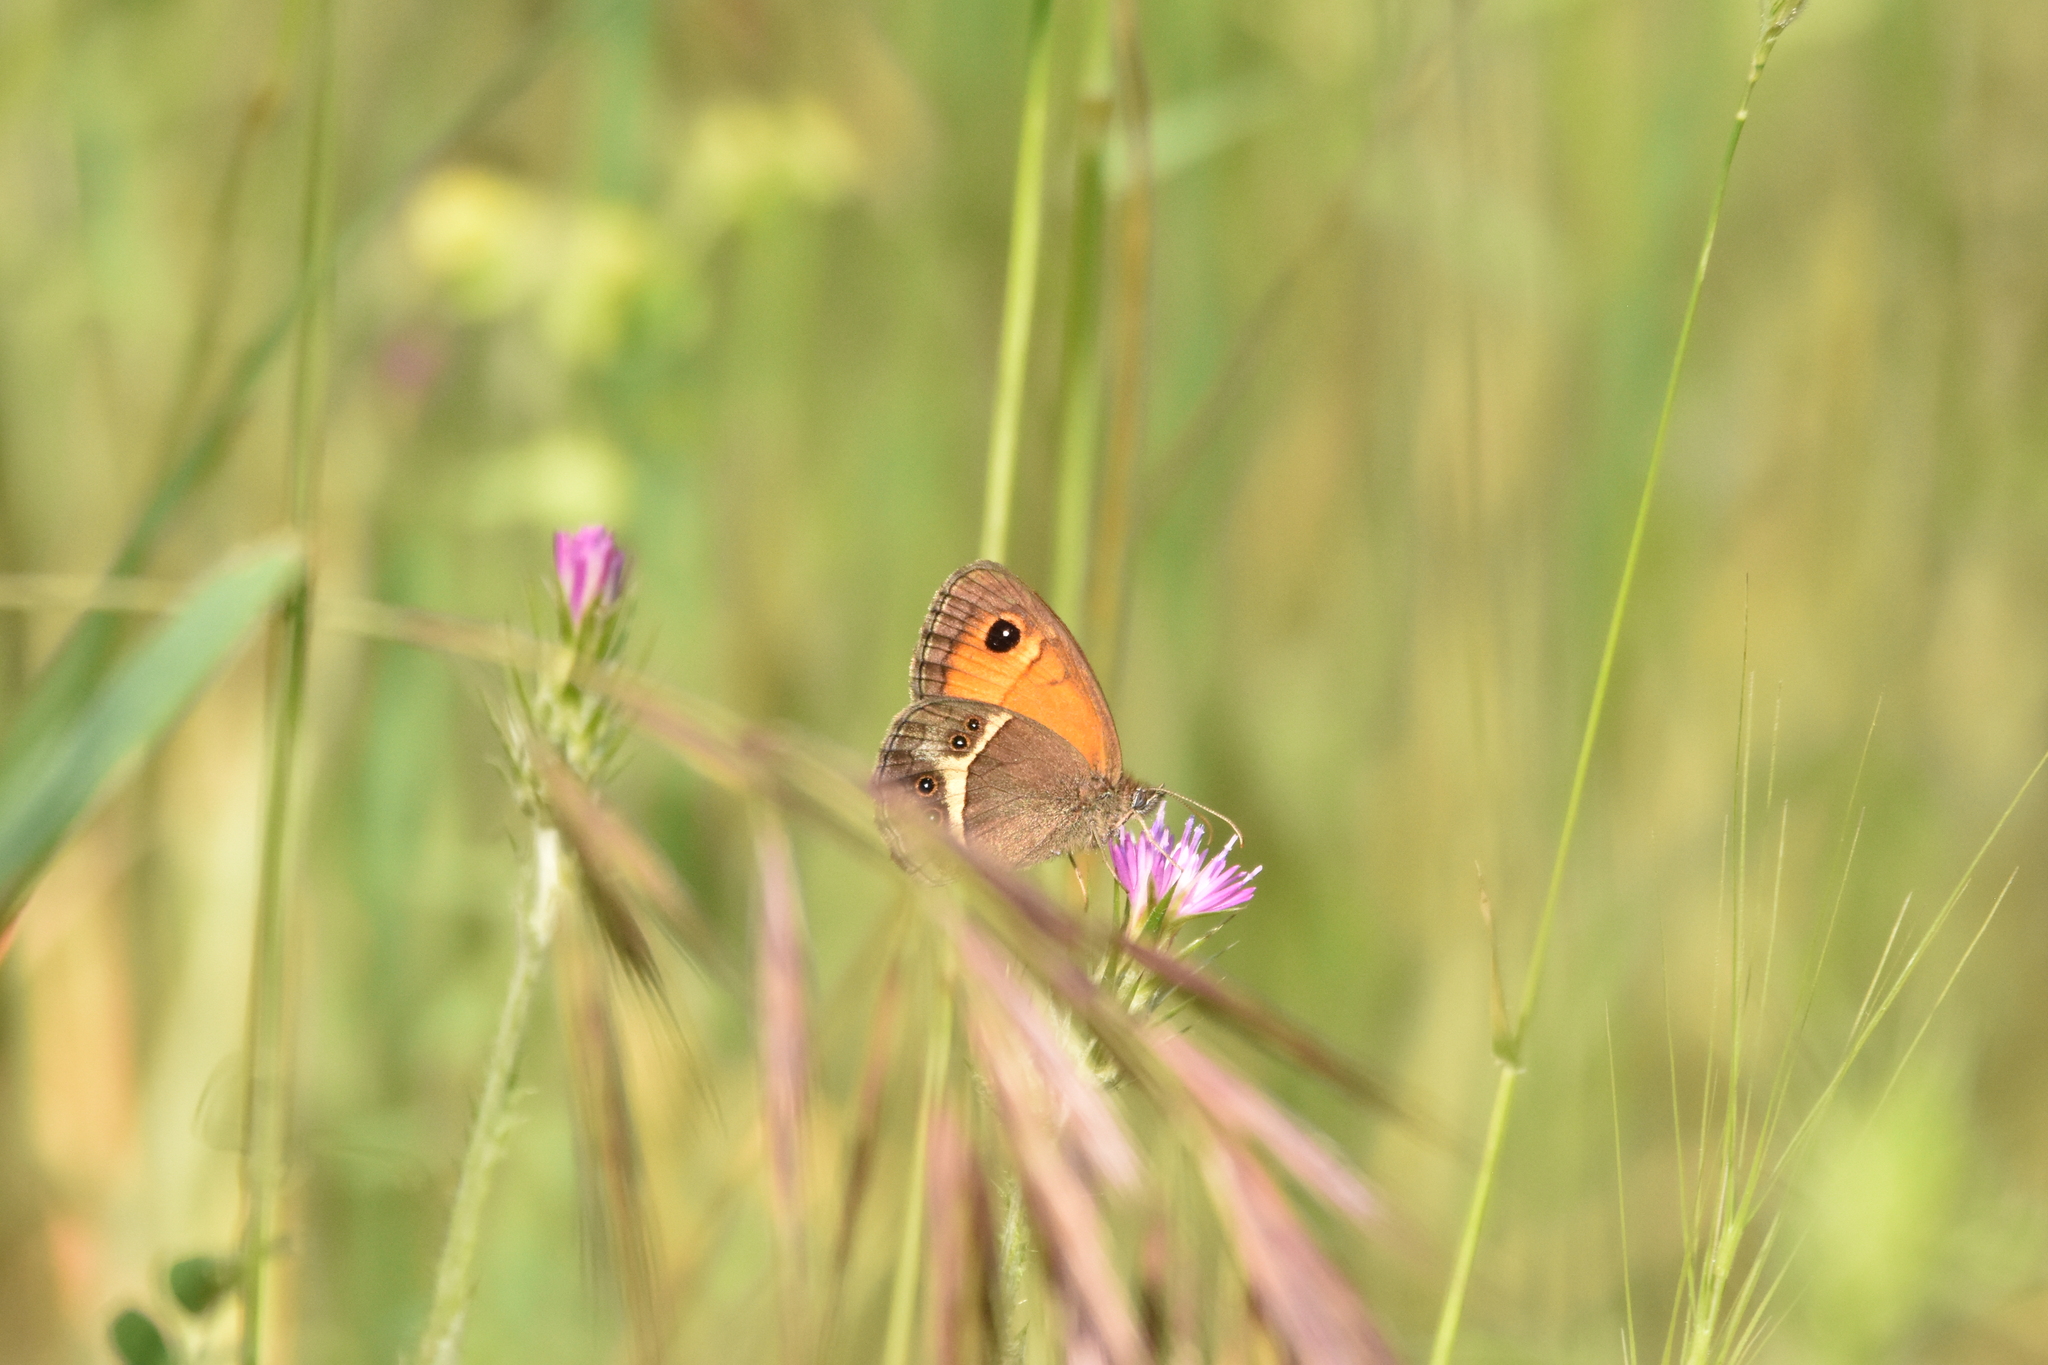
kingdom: Animalia
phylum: Arthropoda
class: Insecta
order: Lepidoptera
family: Nymphalidae
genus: Pyronia
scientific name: Pyronia bathseba
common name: Spanish gatekeeper
